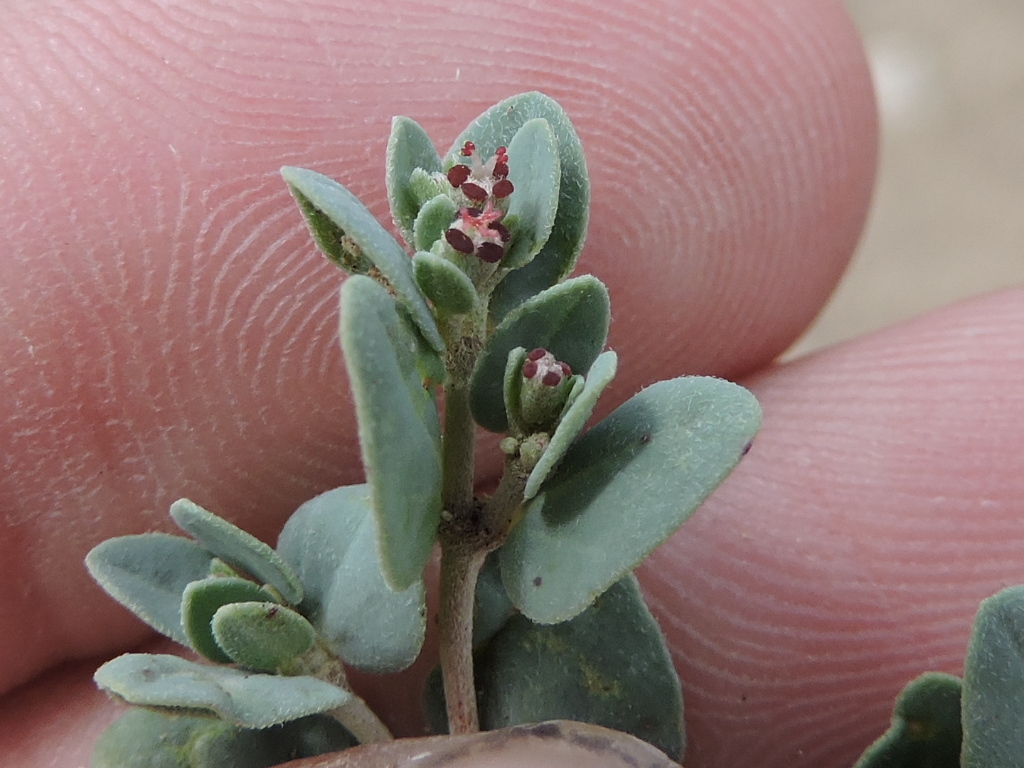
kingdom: Plantae
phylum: Tracheophyta
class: Magnoliopsida
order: Malpighiales
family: Euphorbiaceae
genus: Euphorbia
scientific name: Euphorbia cinerascens
